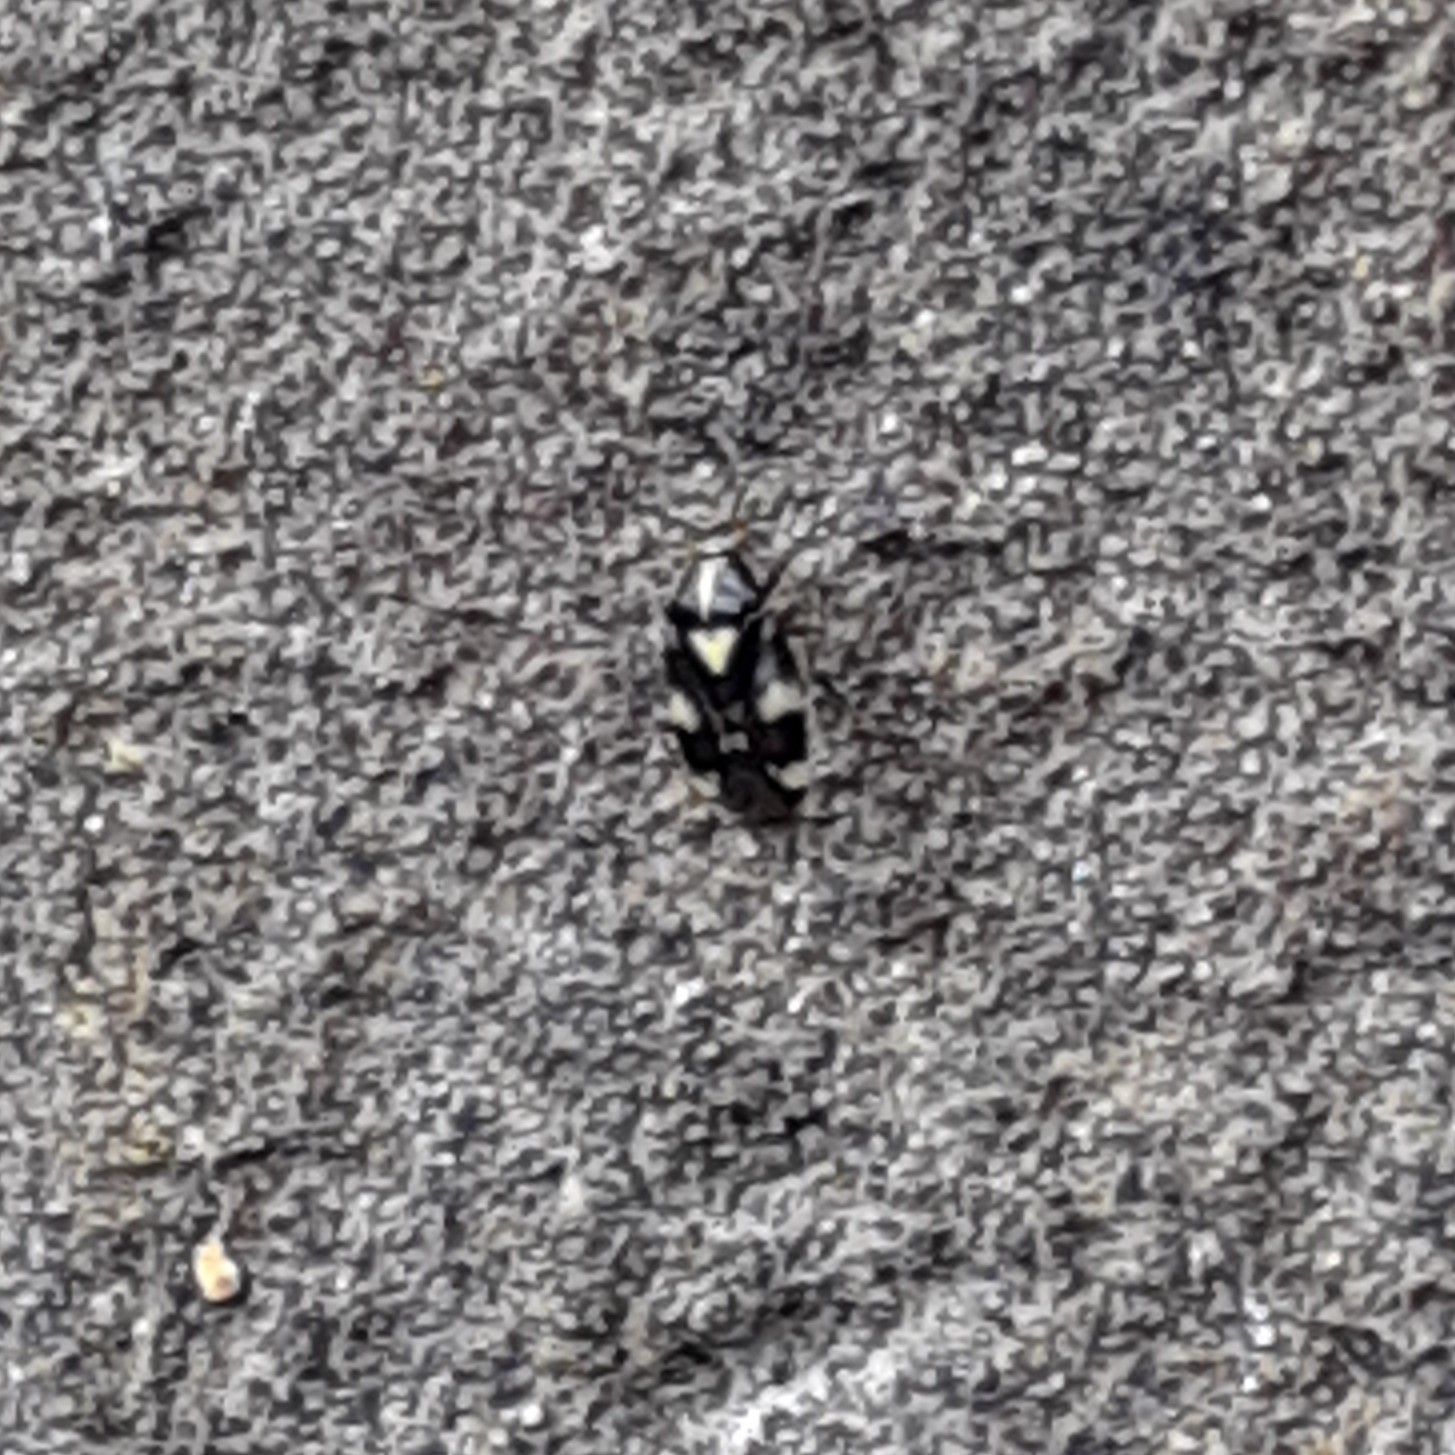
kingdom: Animalia
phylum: Arthropoda
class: Insecta
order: Hemiptera
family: Miridae
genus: Liocoris
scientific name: Liocoris tripustulatus
